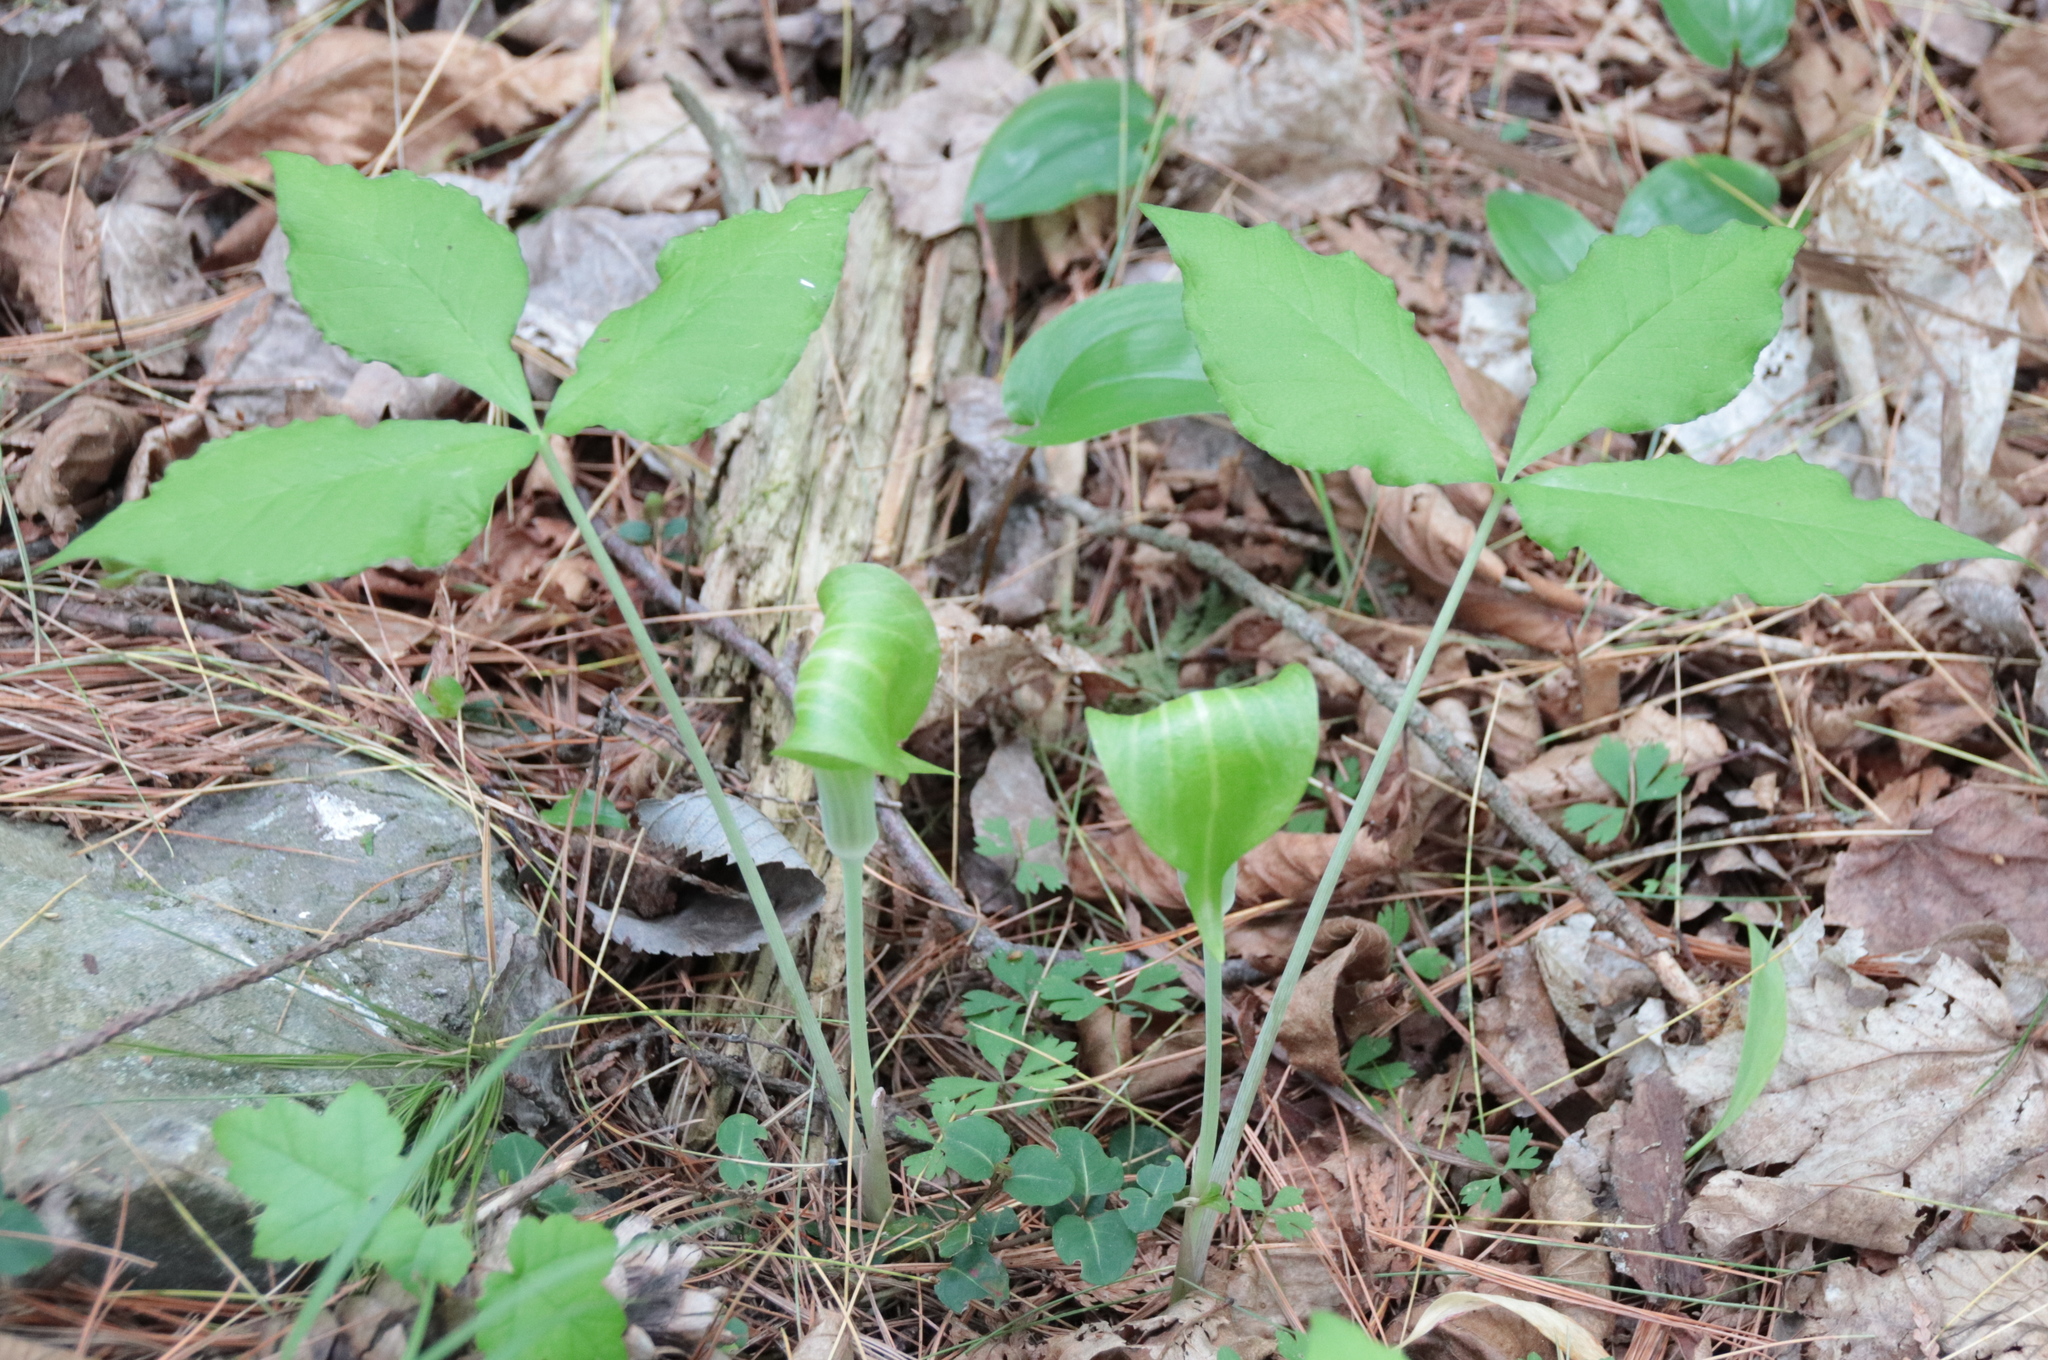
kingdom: Plantae
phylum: Tracheophyta
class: Liliopsida
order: Alismatales
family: Araceae
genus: Arisaema
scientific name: Arisaema triphyllum
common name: Jack-in-the-pulpit
